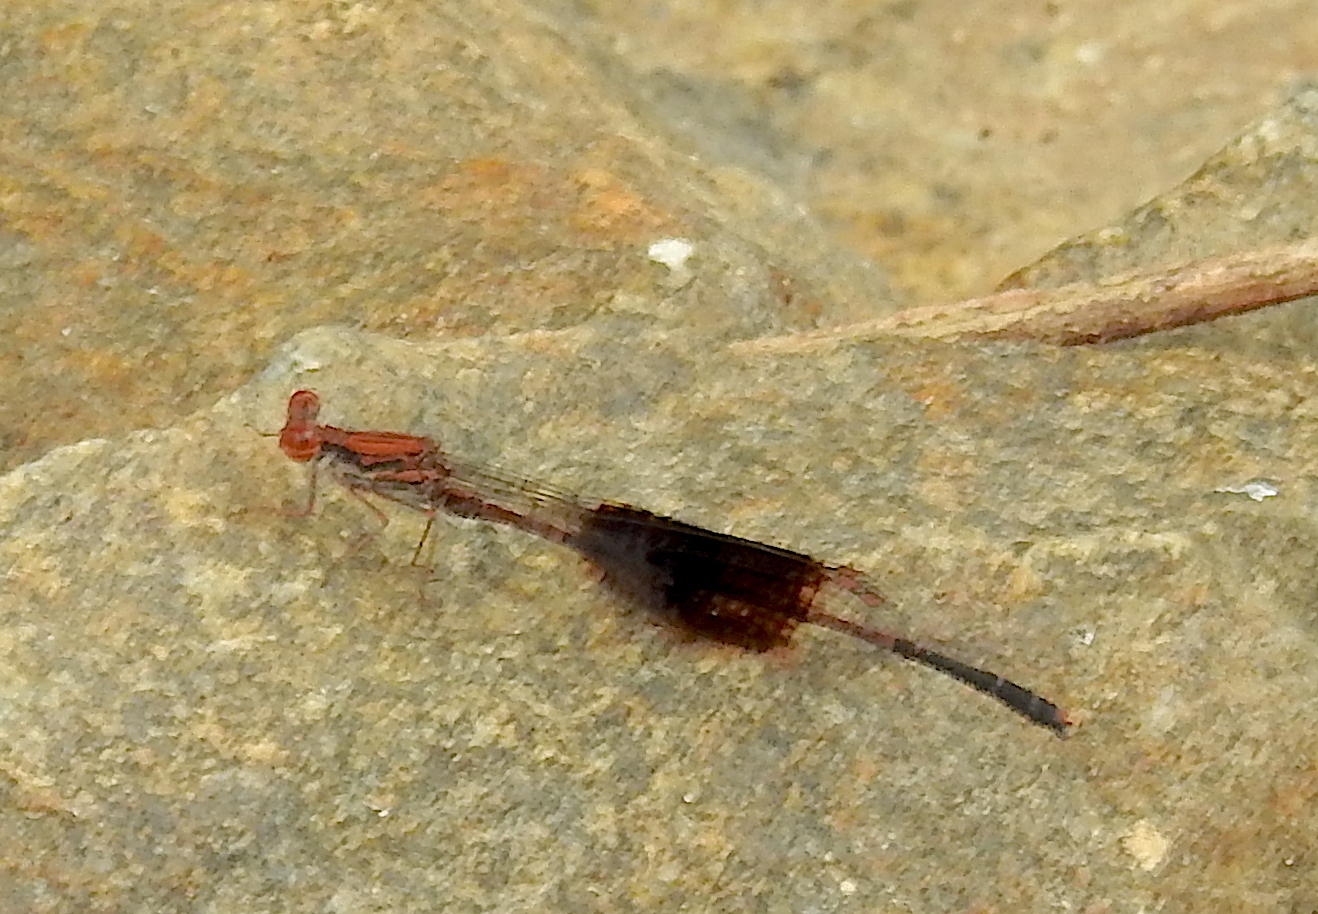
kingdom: Animalia
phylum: Arthropoda
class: Insecta
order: Odonata
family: Platycnemididae
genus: Disparoneura
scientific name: Disparoneura quadrimaculata
